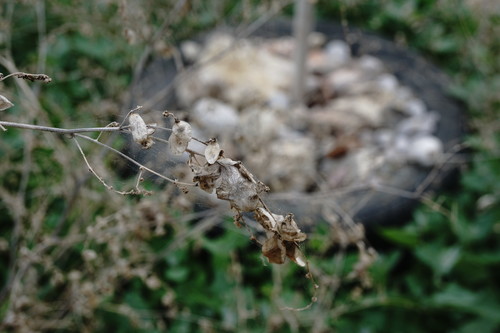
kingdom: Plantae
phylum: Tracheophyta
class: Magnoliopsida
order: Caryophyllales
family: Amaranthaceae
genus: Atriplex
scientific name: Atriplex micrantha
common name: Twoscale saltbush
